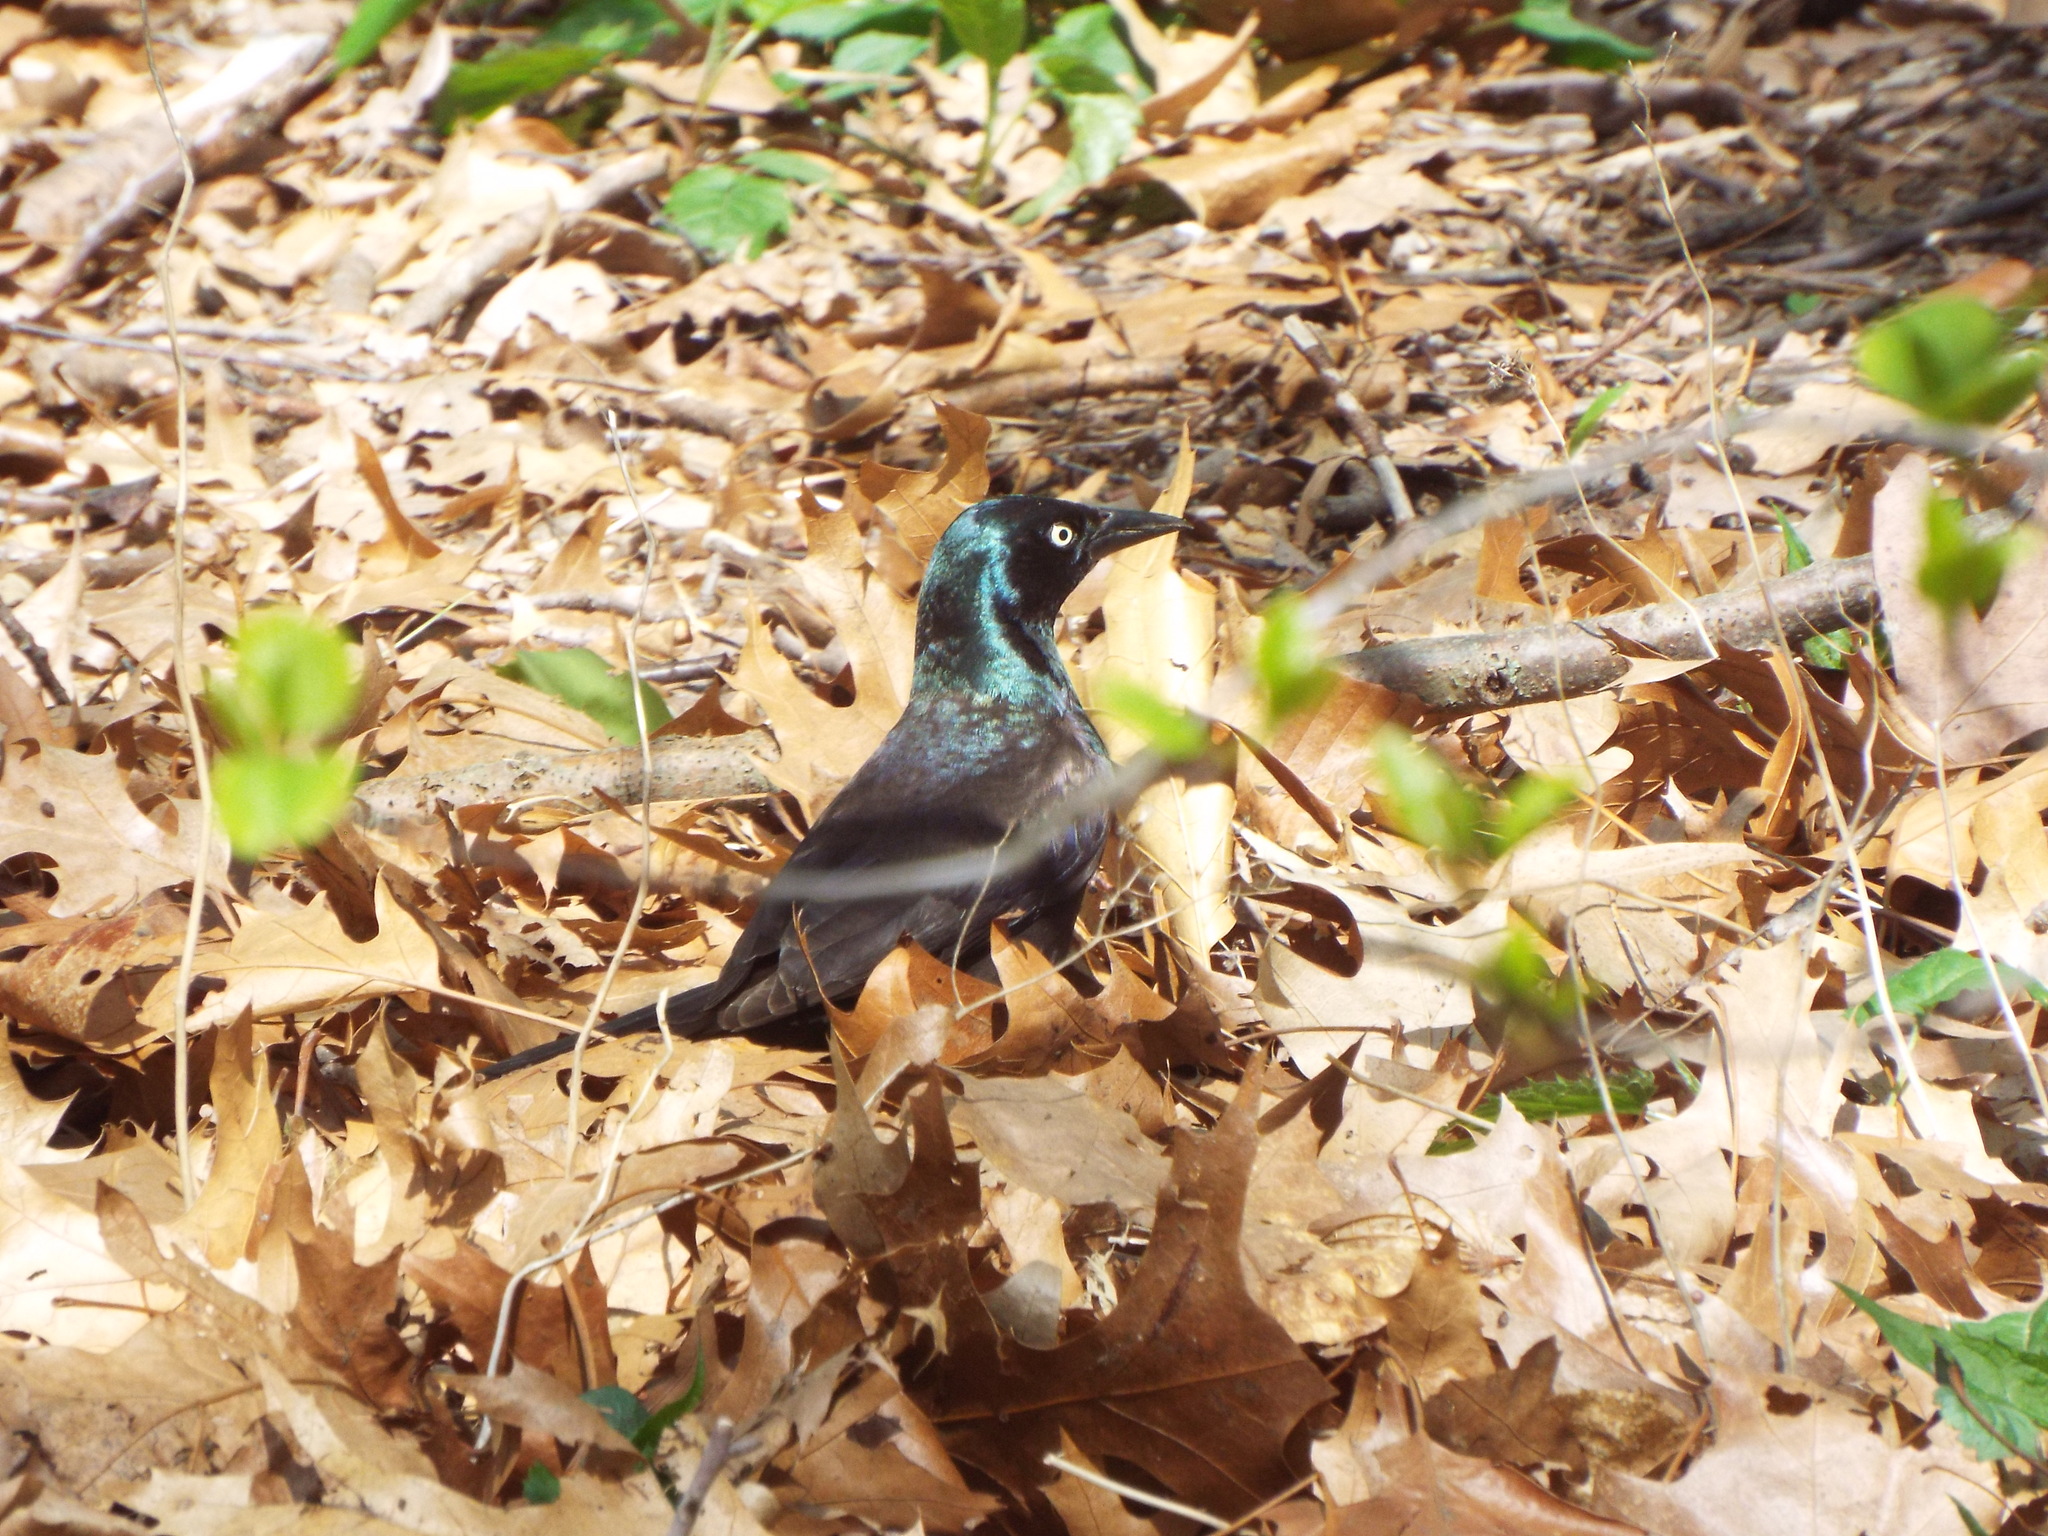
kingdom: Animalia
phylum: Chordata
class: Aves
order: Passeriformes
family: Icteridae
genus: Quiscalus
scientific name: Quiscalus quiscula
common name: Common grackle
